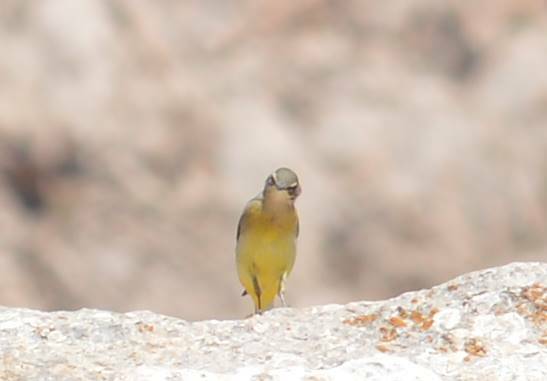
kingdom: Animalia
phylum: Chordata
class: Aves
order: Passeriformes
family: Motacillidae
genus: Motacilla
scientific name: Motacilla cinerea
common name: Grey wagtail
